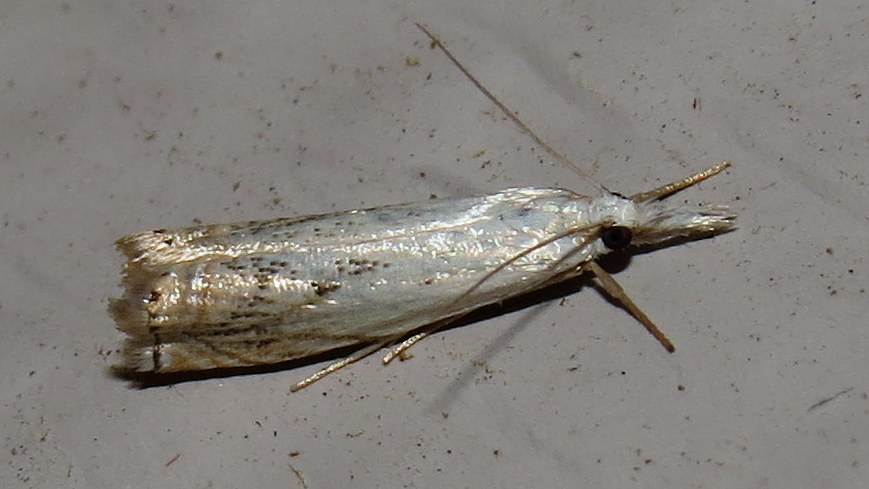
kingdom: Animalia
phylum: Arthropoda
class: Insecta
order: Lepidoptera
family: Crambidae
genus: Crambus
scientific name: Crambus albellus
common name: Small white grass-veneer
